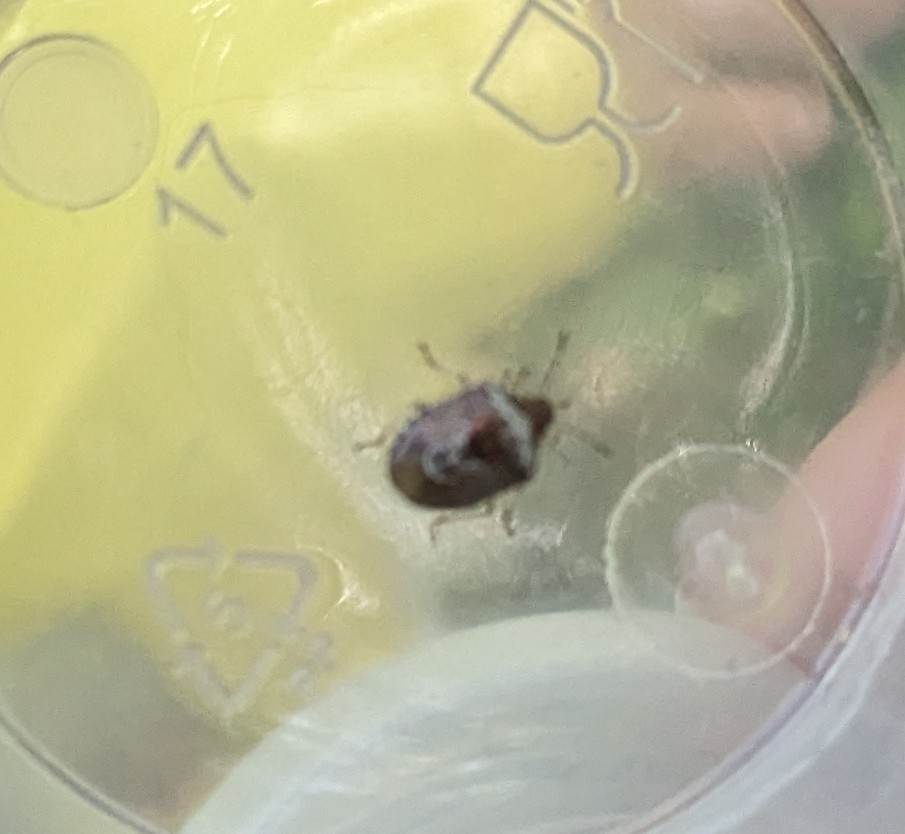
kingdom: Animalia
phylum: Arthropoda
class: Insecta
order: Hemiptera
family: Pentatomidae
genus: Eysarcoris
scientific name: Eysarcoris venustissimus
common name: Woundwort shieldbug
